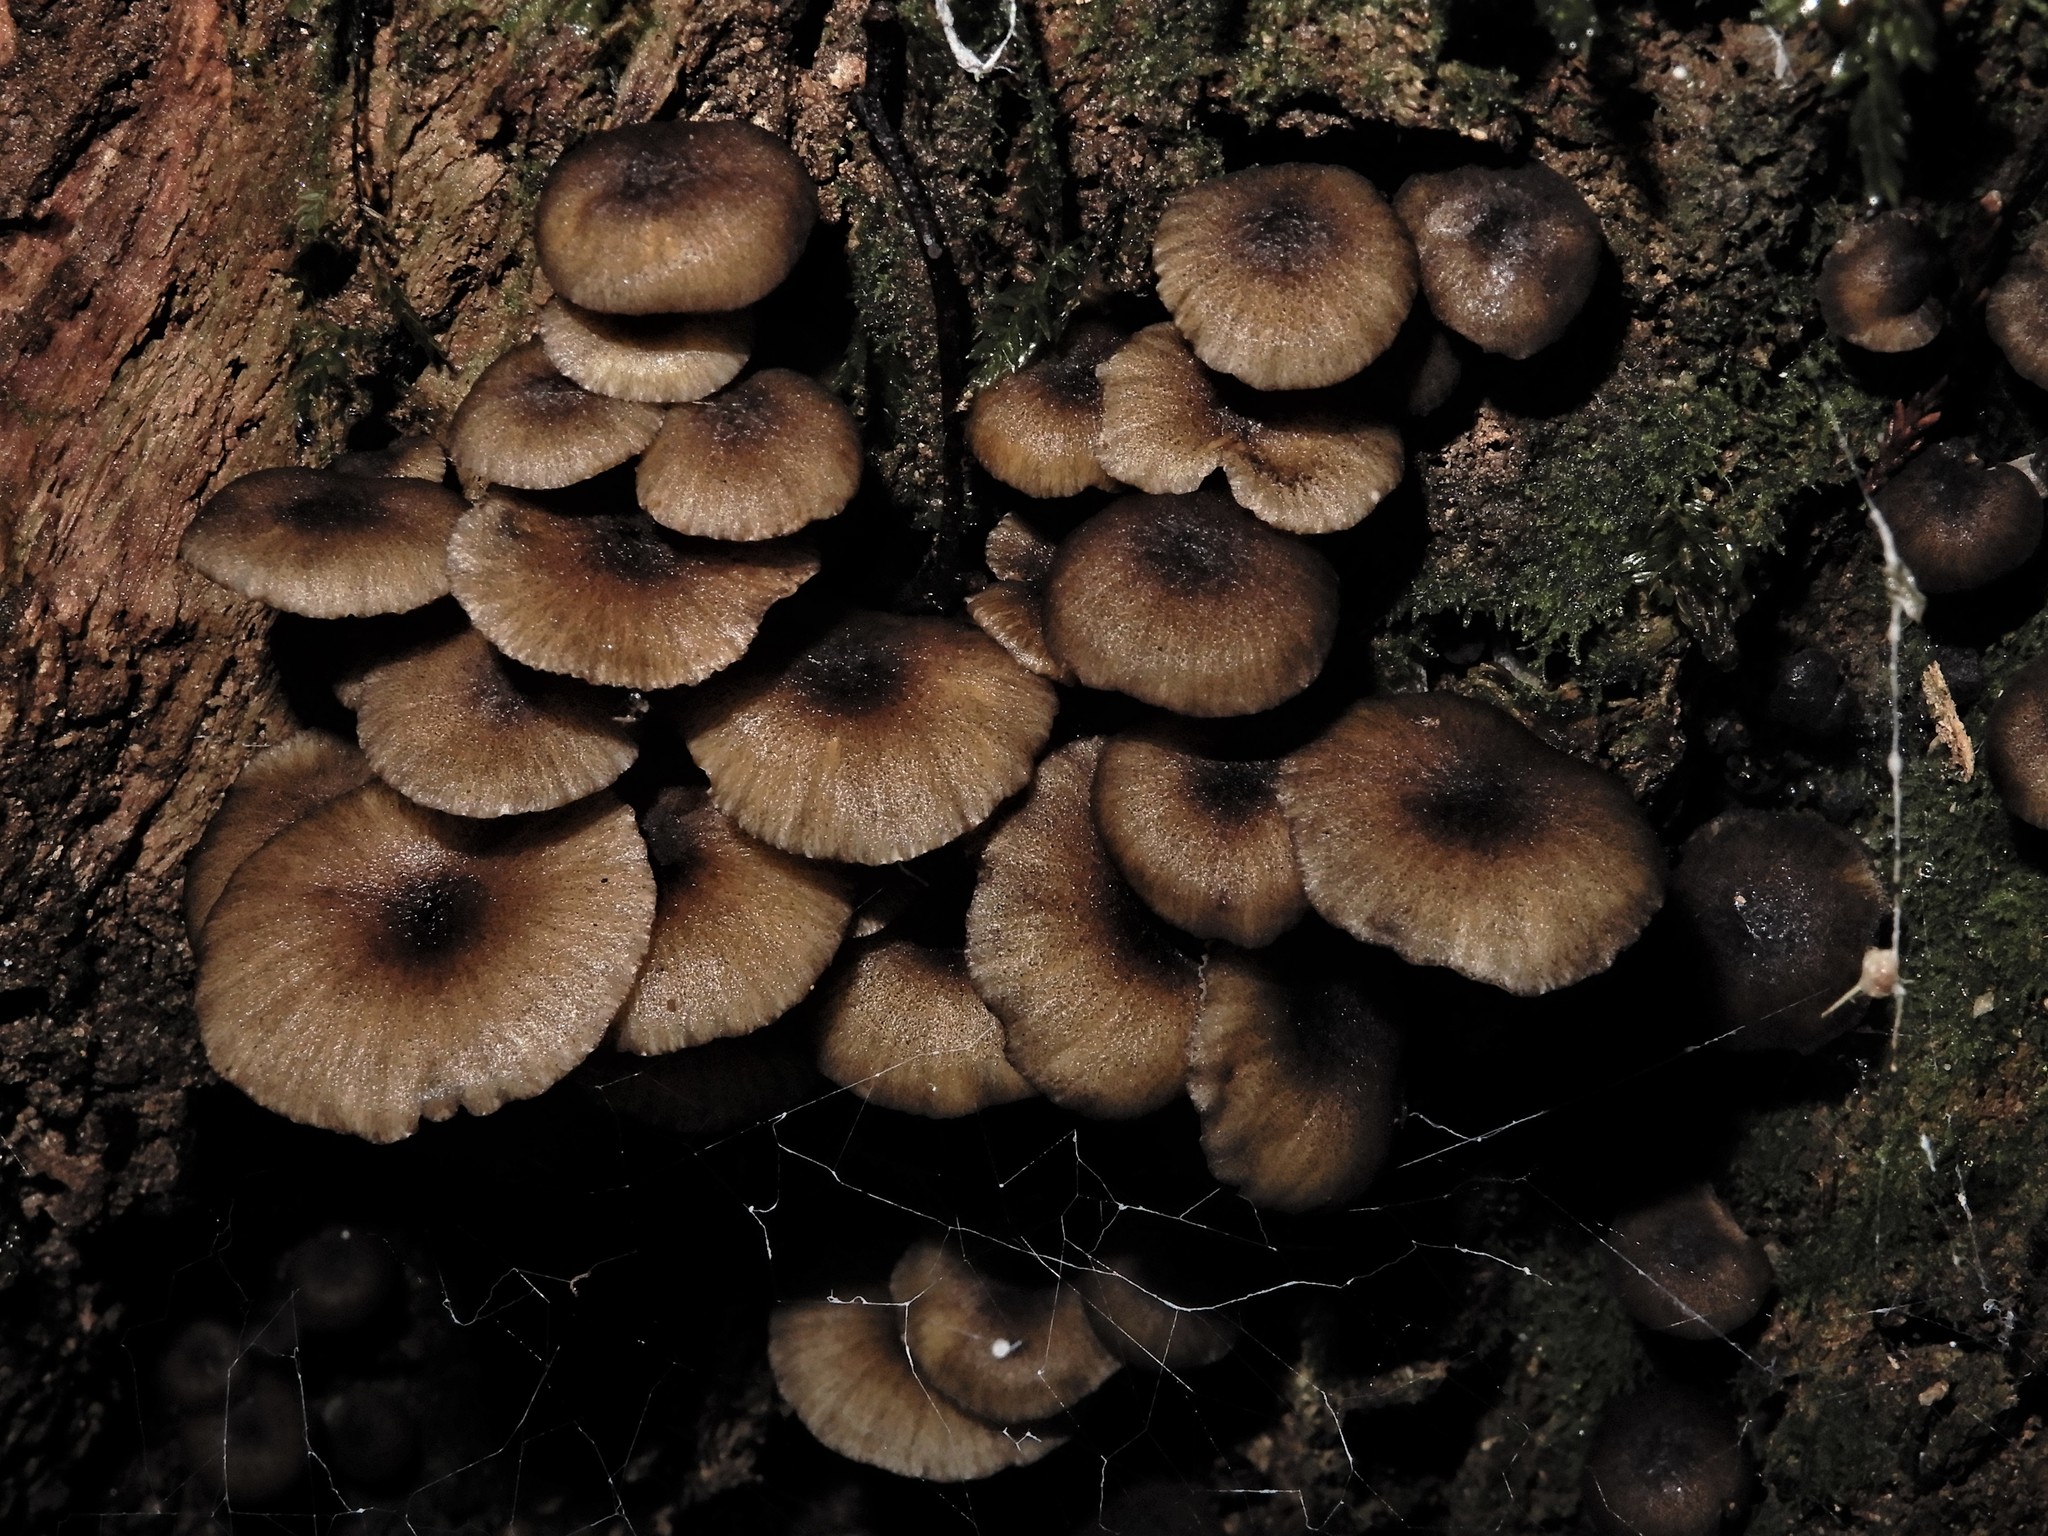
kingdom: Fungi
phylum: Basidiomycota
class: Agaricomycetes
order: Agaricales
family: Marasmiaceae
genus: Gerronema
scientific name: Gerronema
